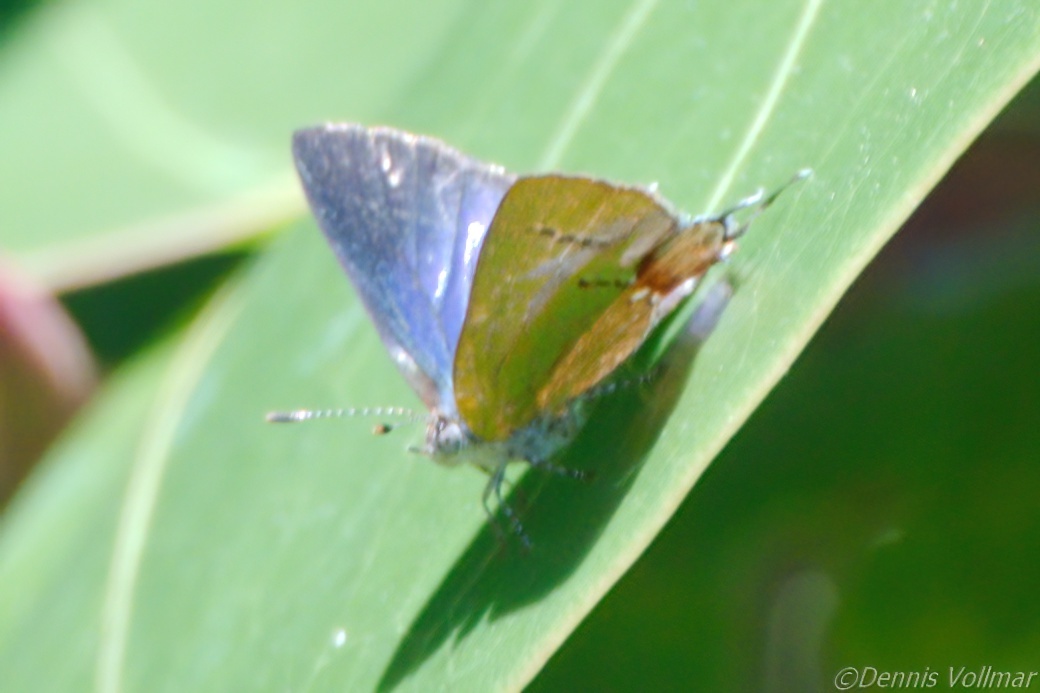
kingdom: Animalia
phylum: Arthropoda
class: Insecta
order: Lepidoptera
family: Lycaenidae
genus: Thecla
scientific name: Thecla maesites
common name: Verde azul hairstreak
